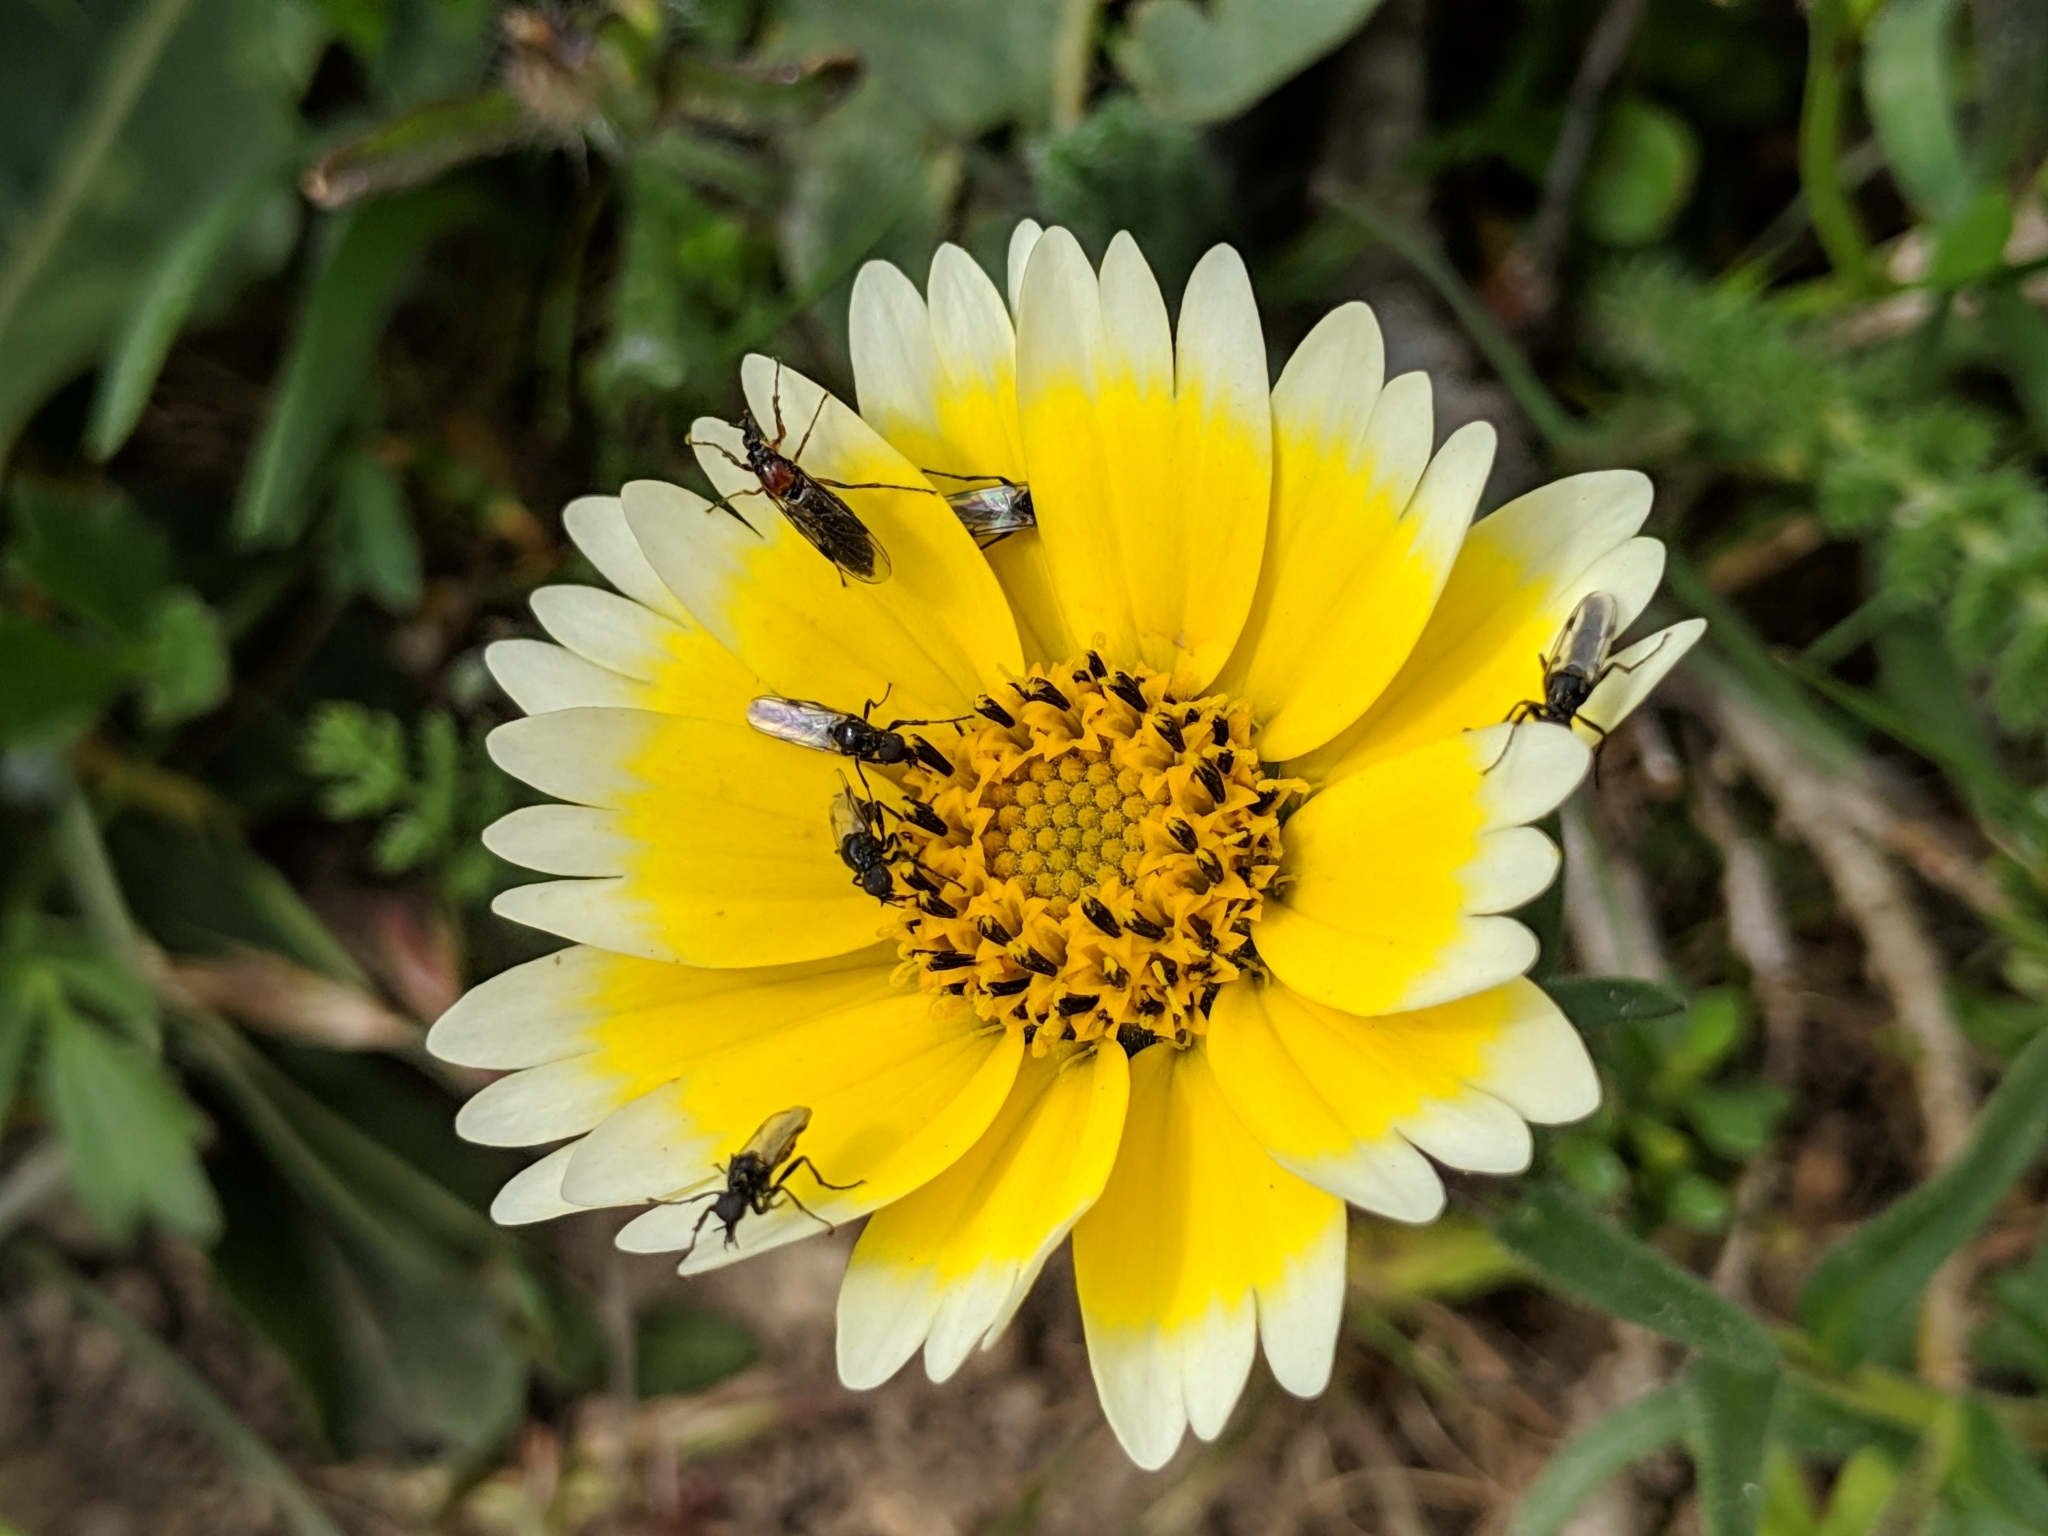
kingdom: Plantae
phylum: Tracheophyta
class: Magnoliopsida
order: Asterales
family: Asteraceae
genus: Layia
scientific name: Layia platyglossa
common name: Tidy-tips
